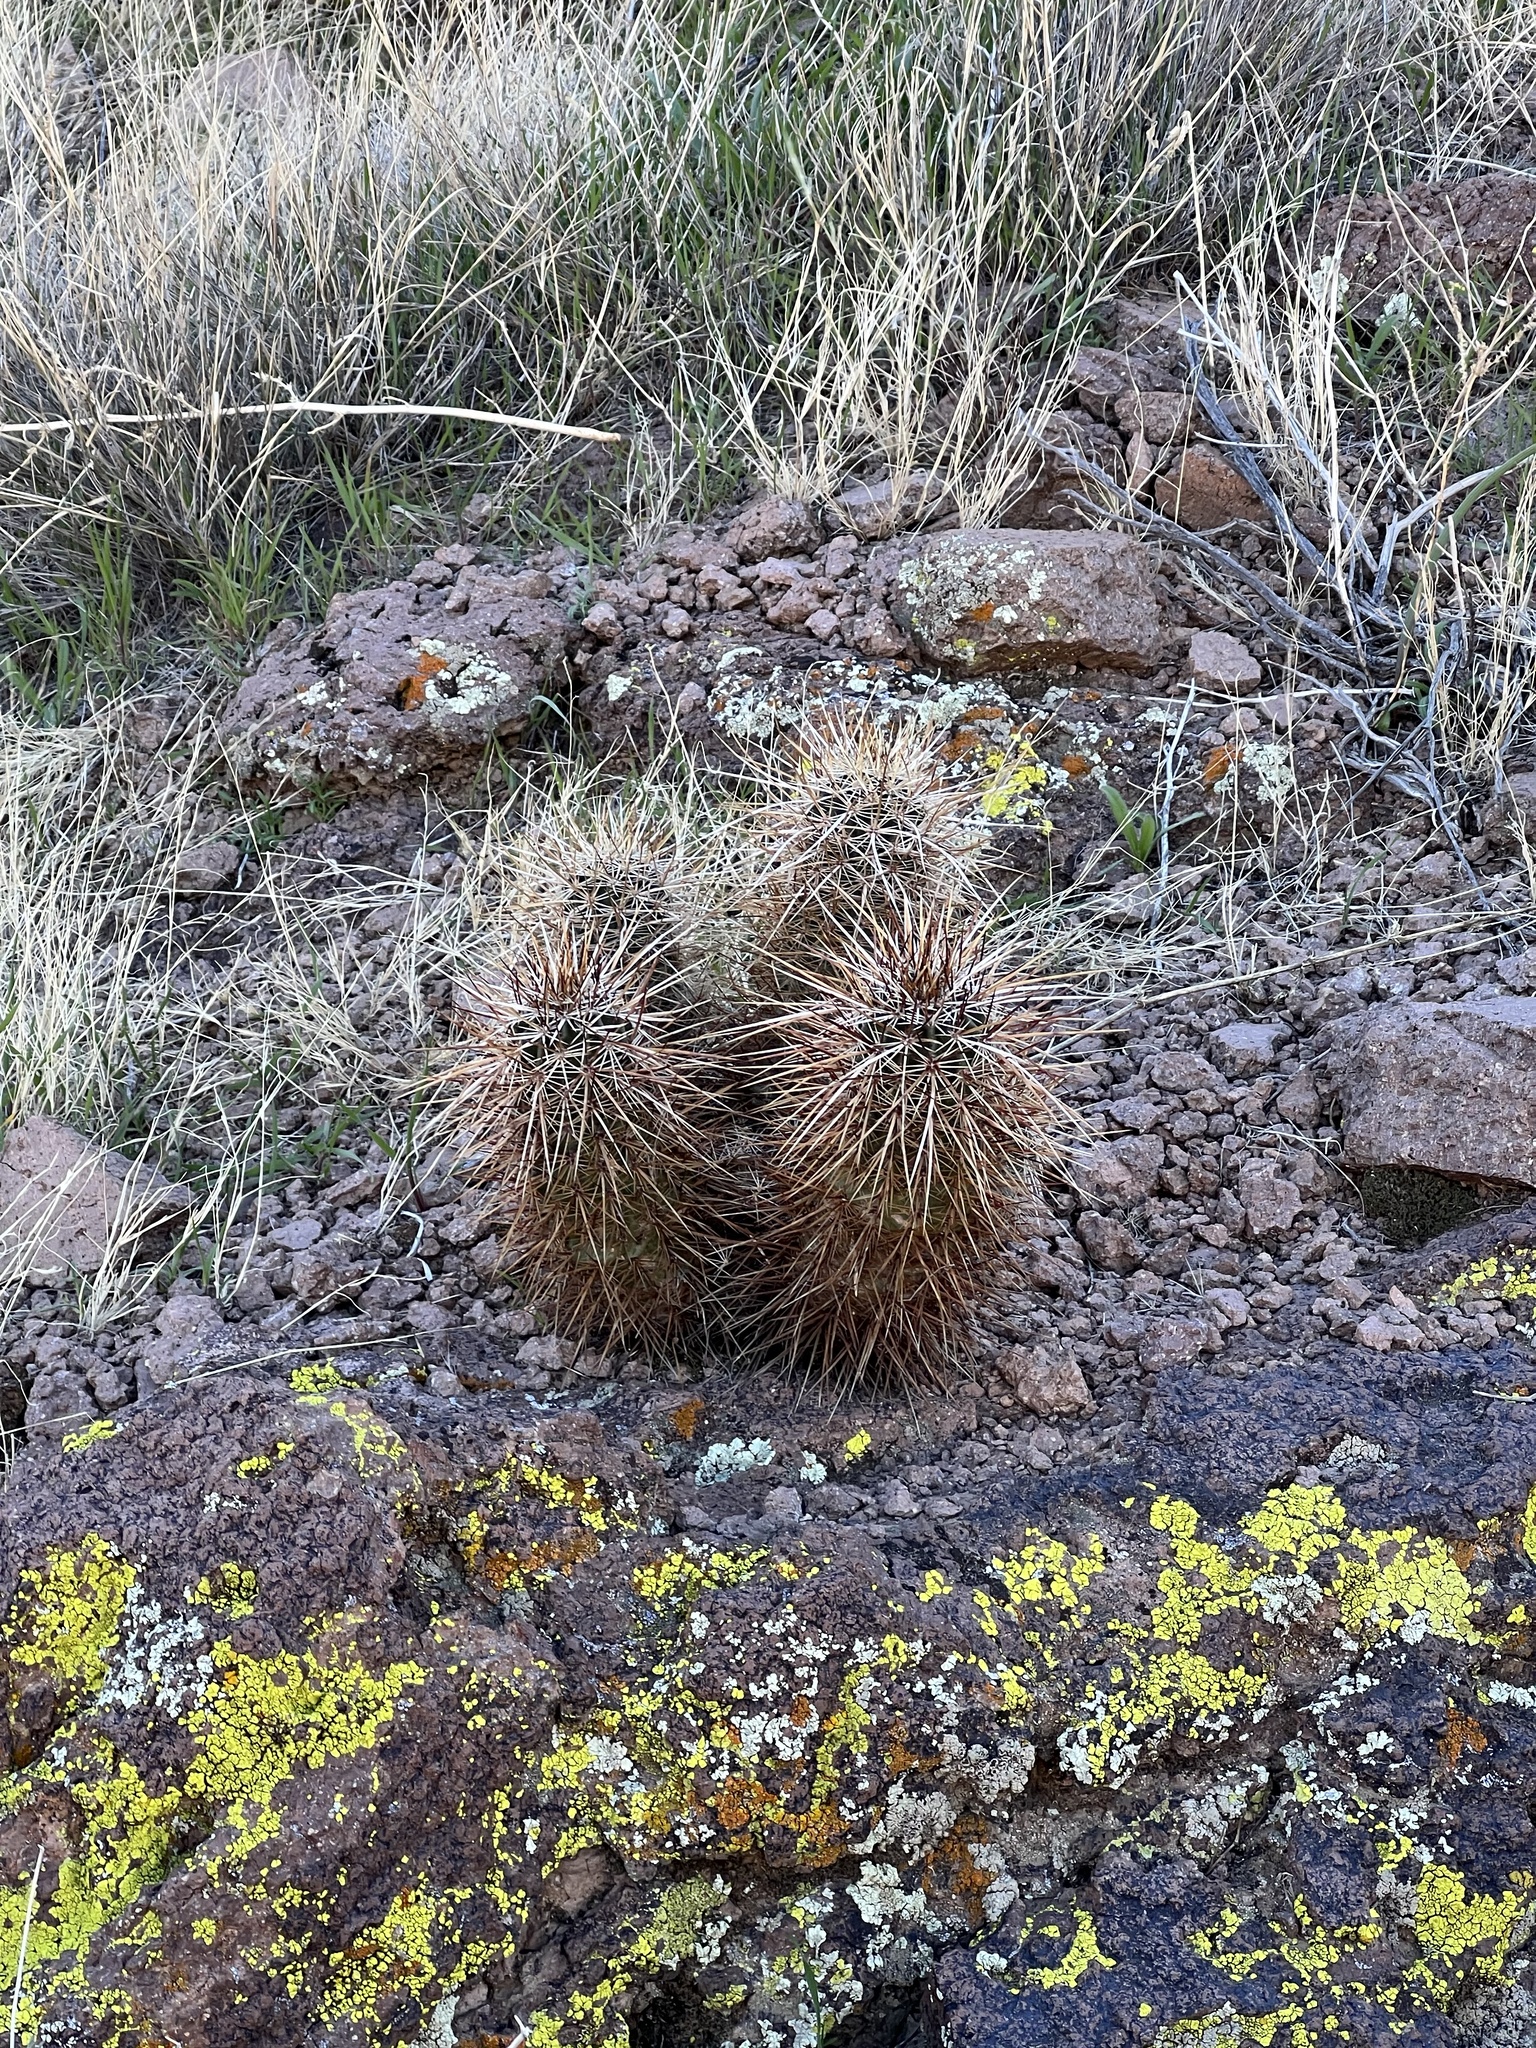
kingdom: Plantae
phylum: Tracheophyta
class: Magnoliopsida
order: Caryophyllales
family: Cactaceae
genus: Echinocereus
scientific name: Echinocereus engelmannii
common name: Engelmann's hedgehog cactus
